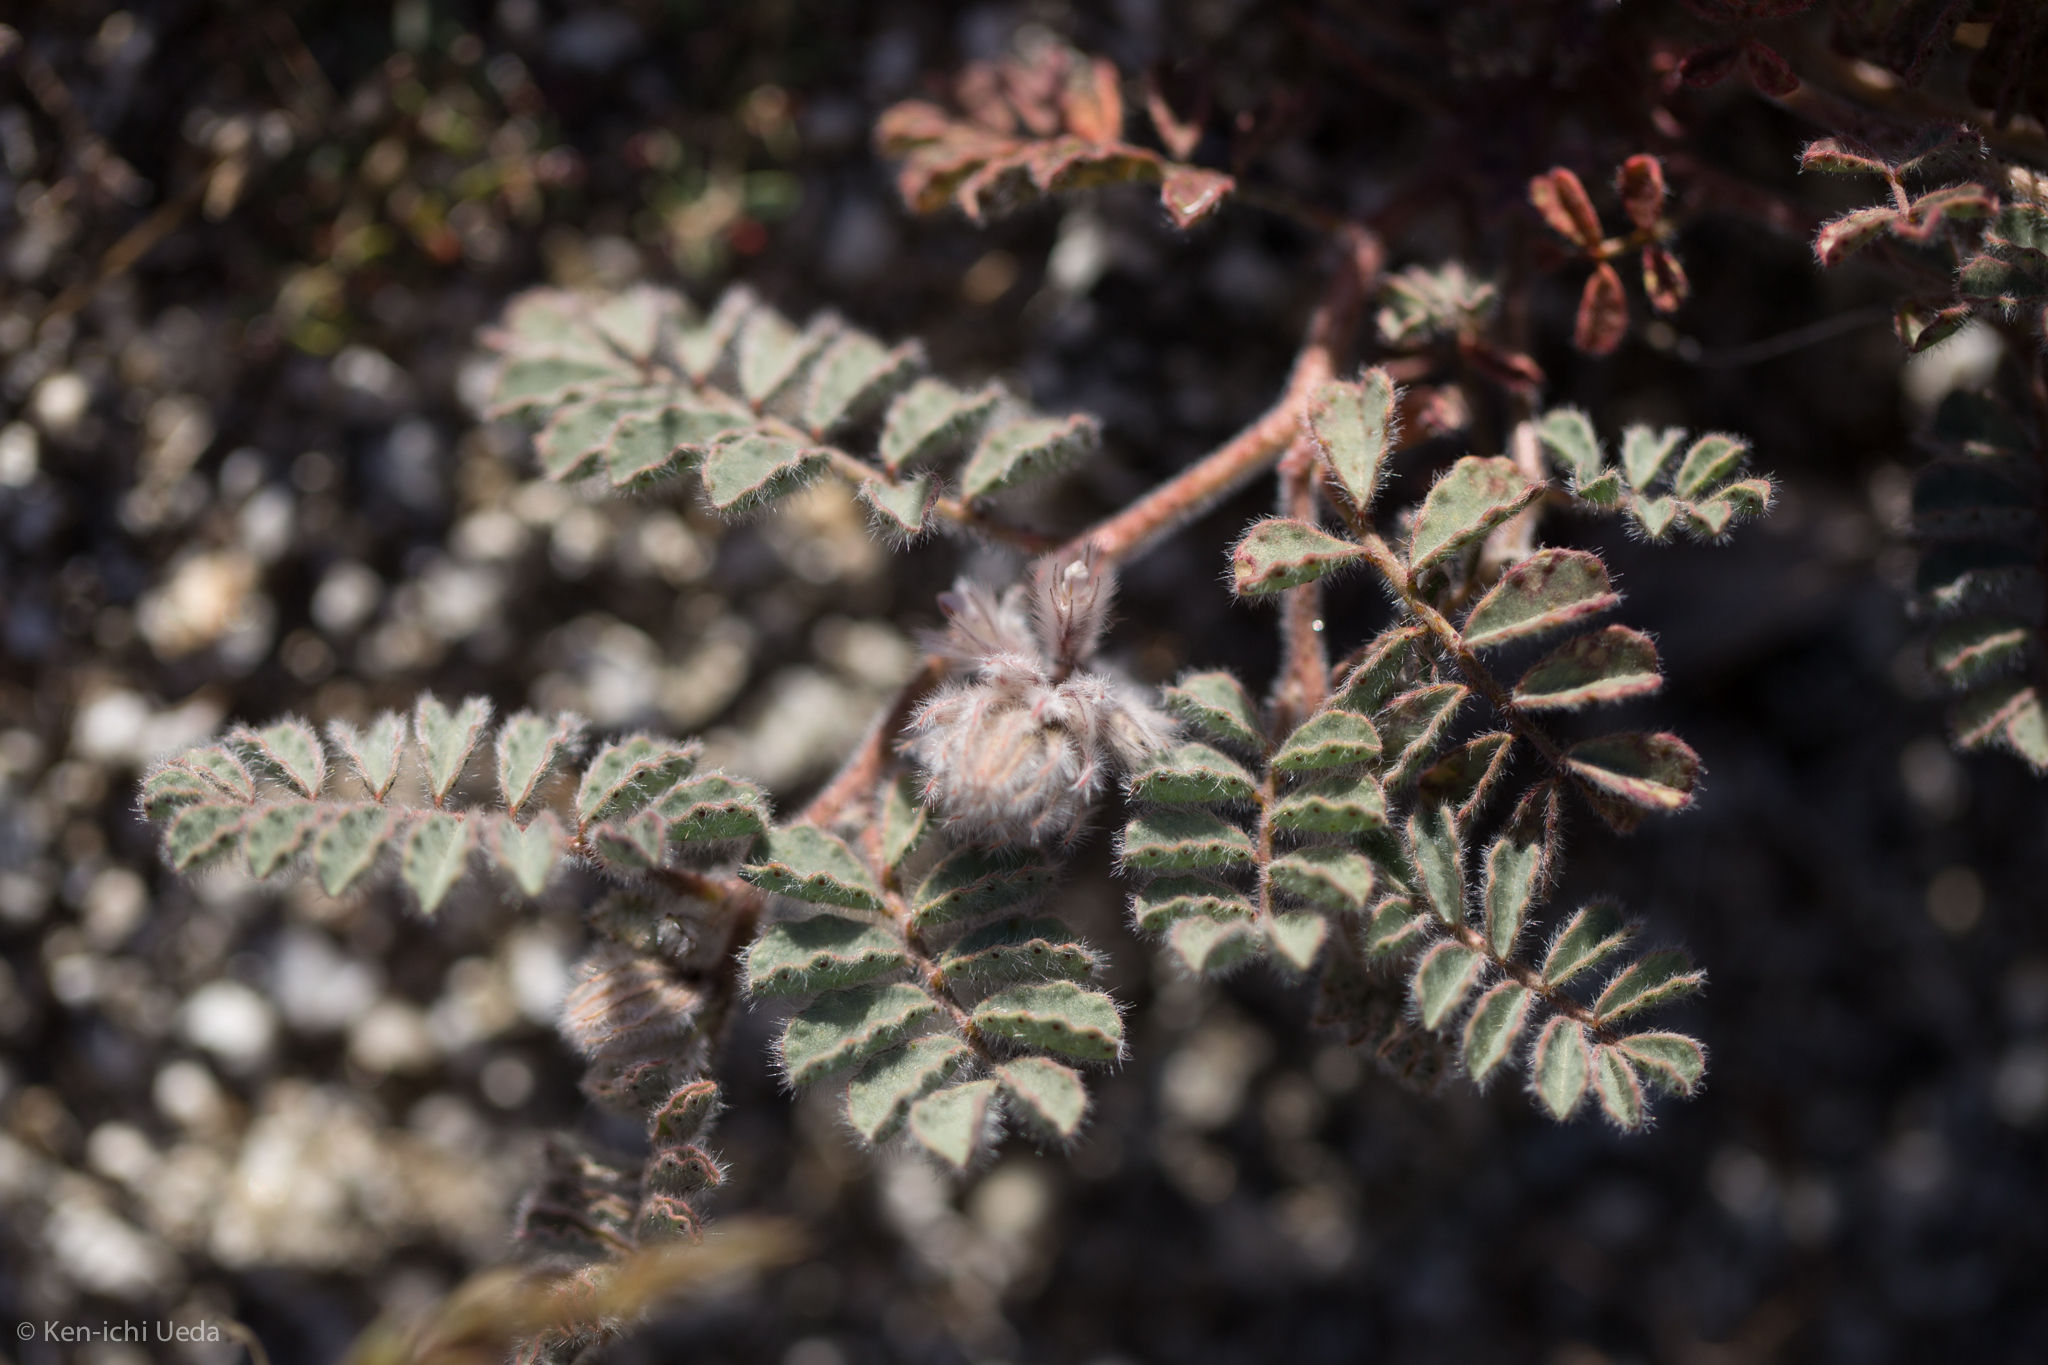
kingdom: Plantae
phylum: Tracheophyta
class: Magnoliopsida
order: Fabales
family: Fabaceae
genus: Dalea
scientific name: Dalea mollissima
